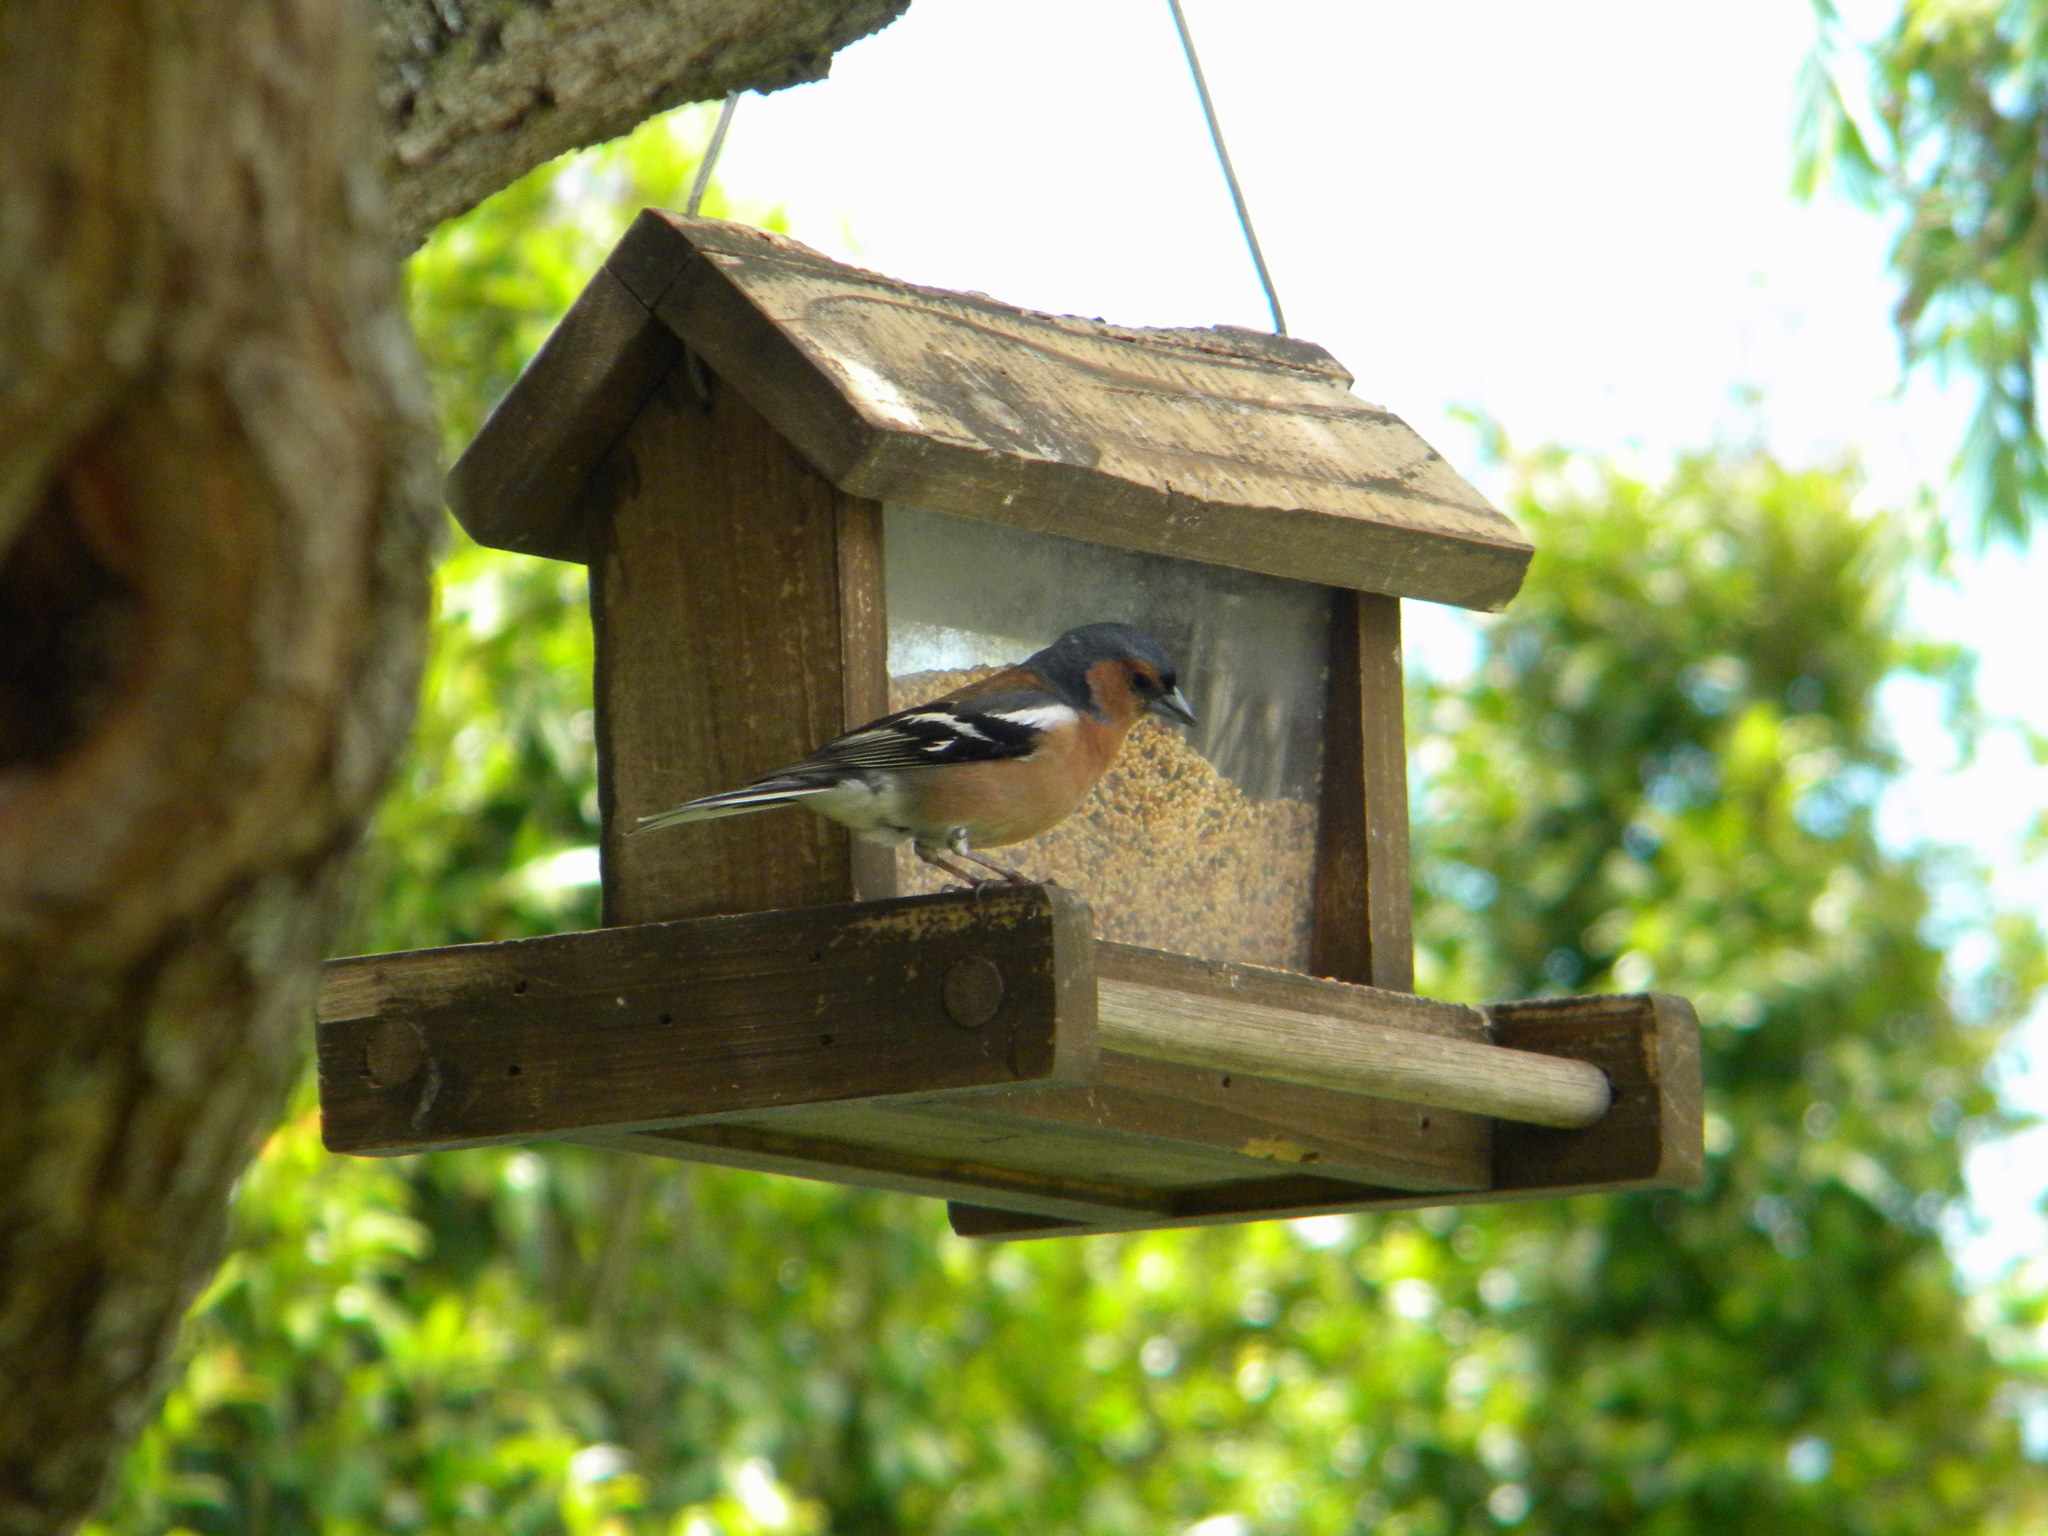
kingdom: Animalia
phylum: Chordata
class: Aves
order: Passeriformes
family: Fringillidae
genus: Fringilla
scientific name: Fringilla coelebs
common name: Common chaffinch
